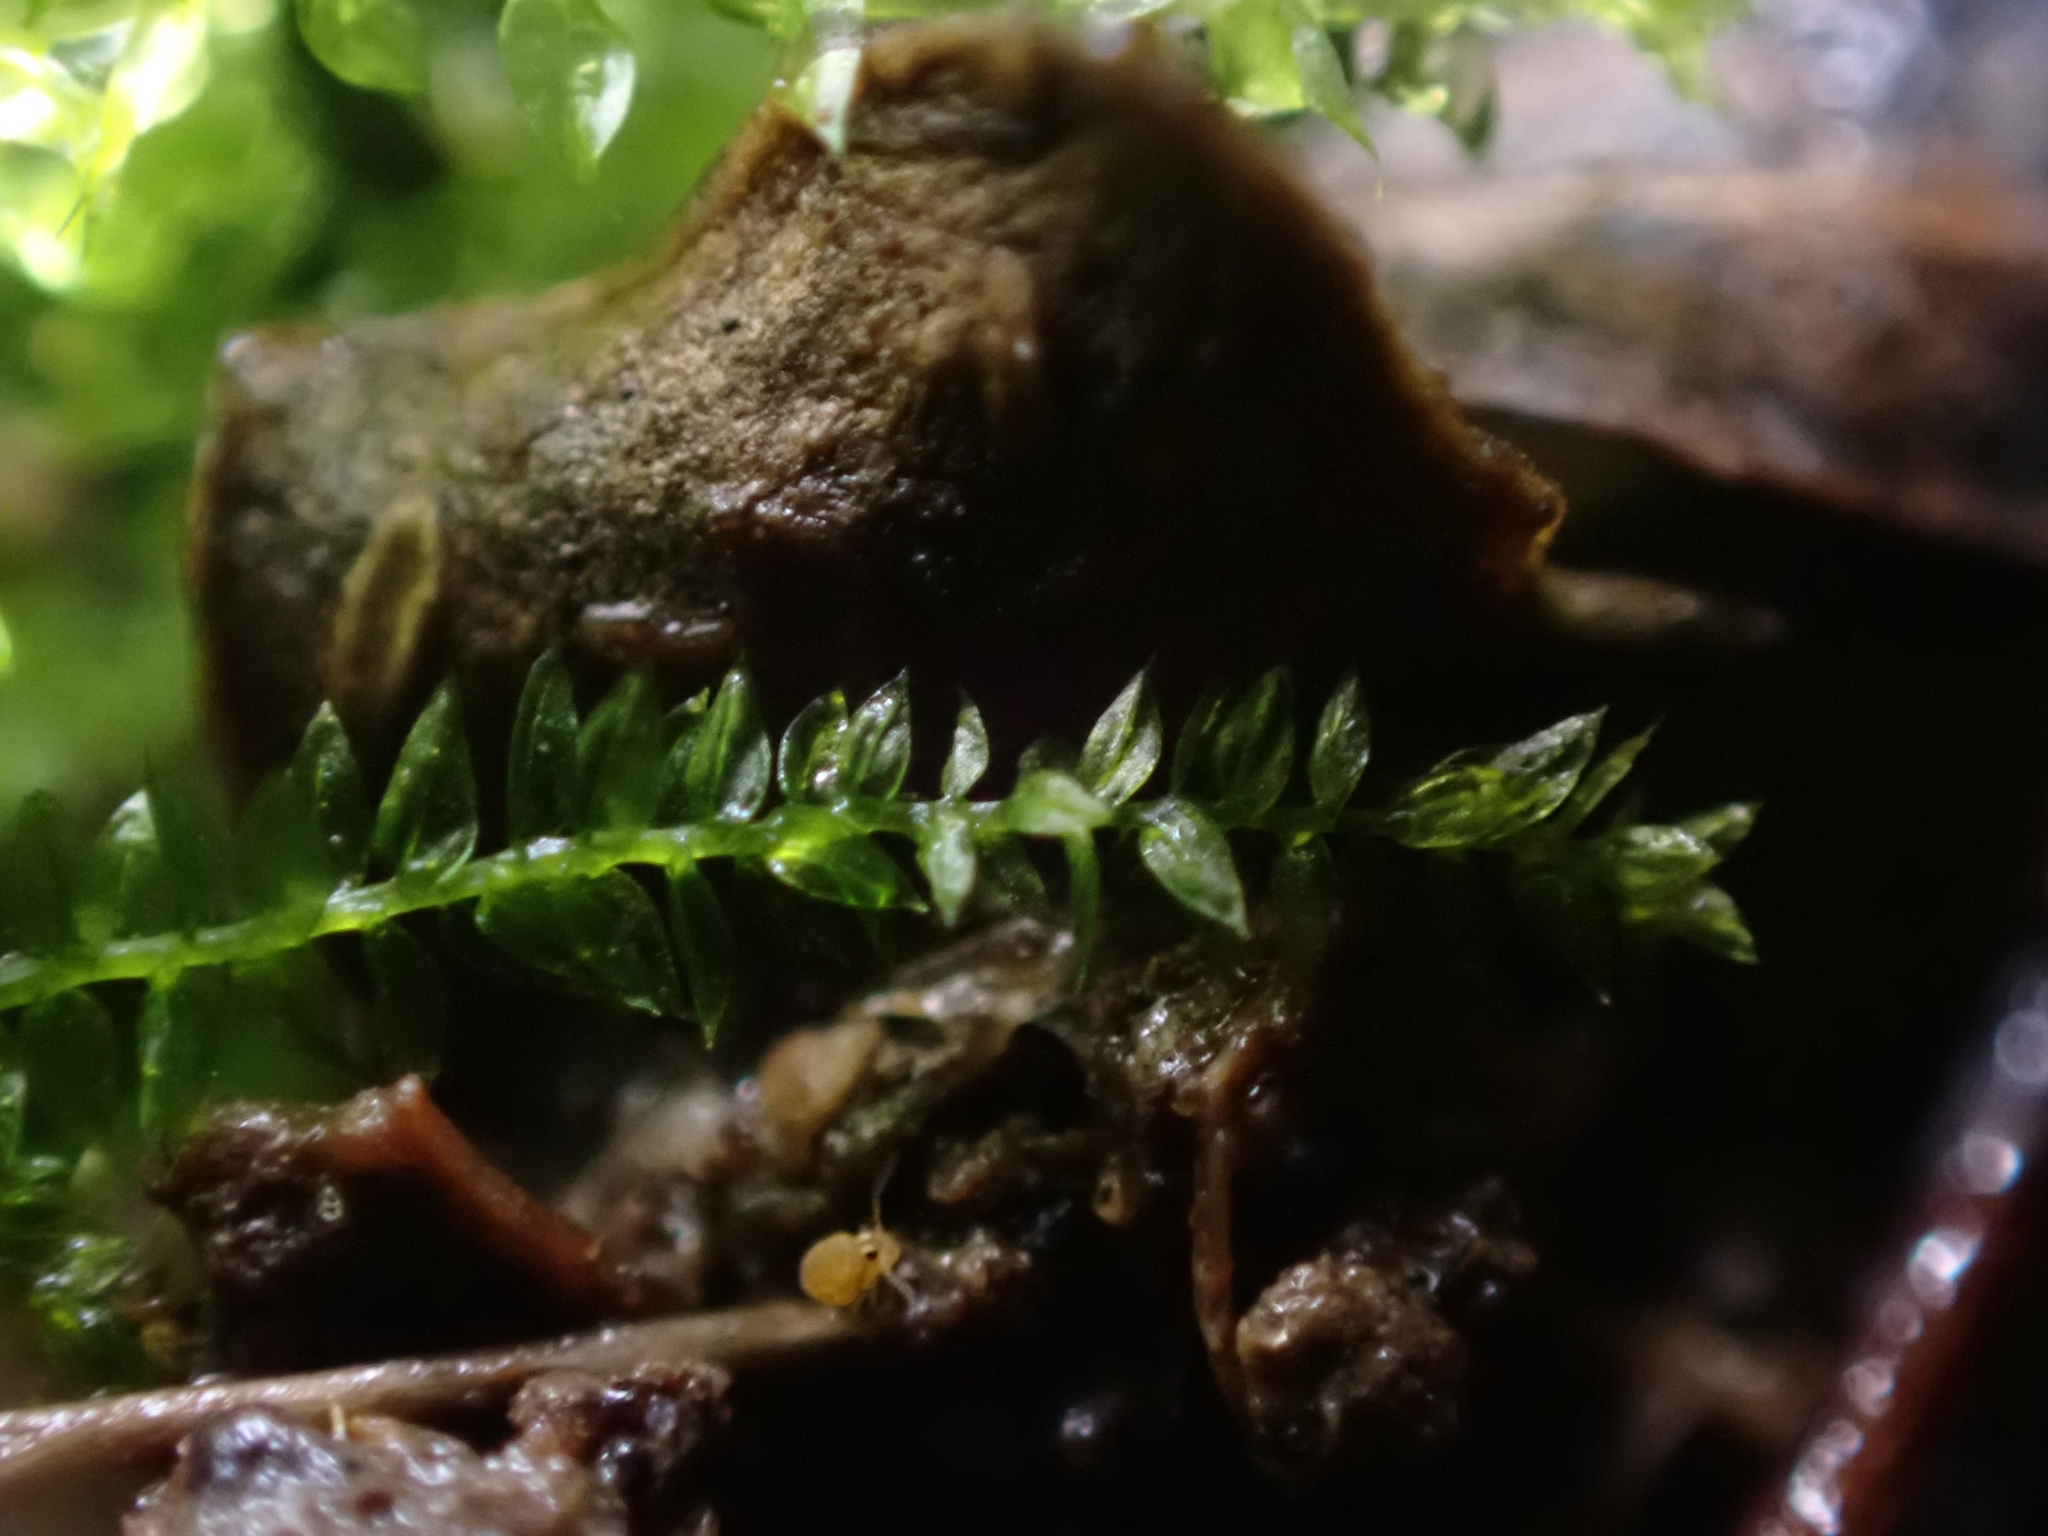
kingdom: Plantae
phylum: Bryophyta
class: Bryopsida
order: Hypnales
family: Brachytheciaceae
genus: Oxyrrhynchium
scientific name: Oxyrrhynchium hians
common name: Spreading beaked moss
